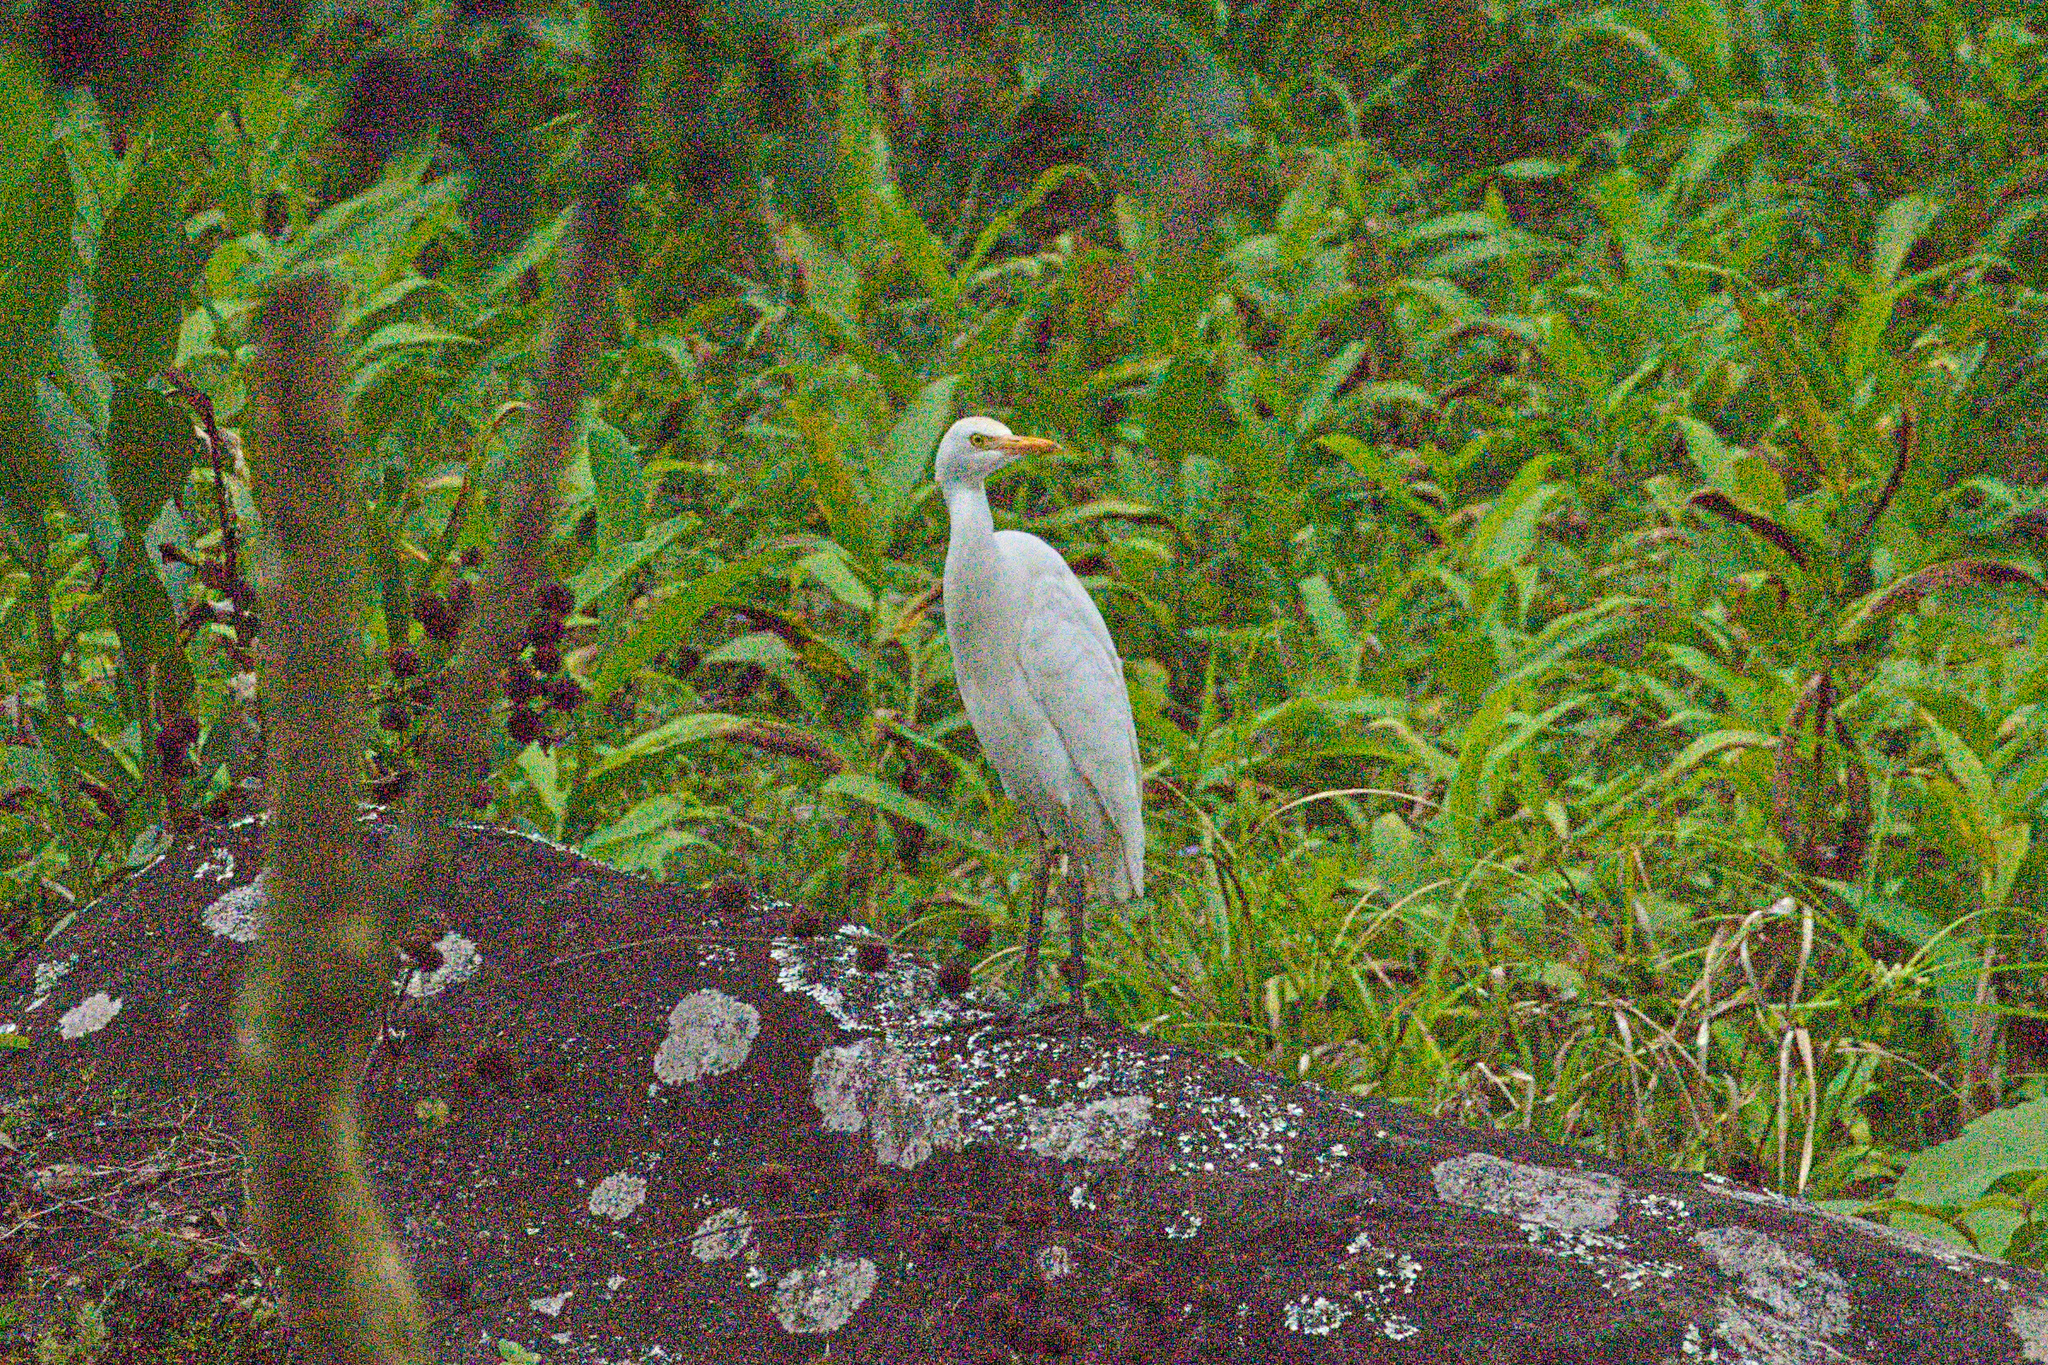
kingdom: Animalia
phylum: Chordata
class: Aves
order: Pelecaniformes
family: Ardeidae
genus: Bubulcus
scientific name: Bubulcus ibis
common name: Cattle egret
